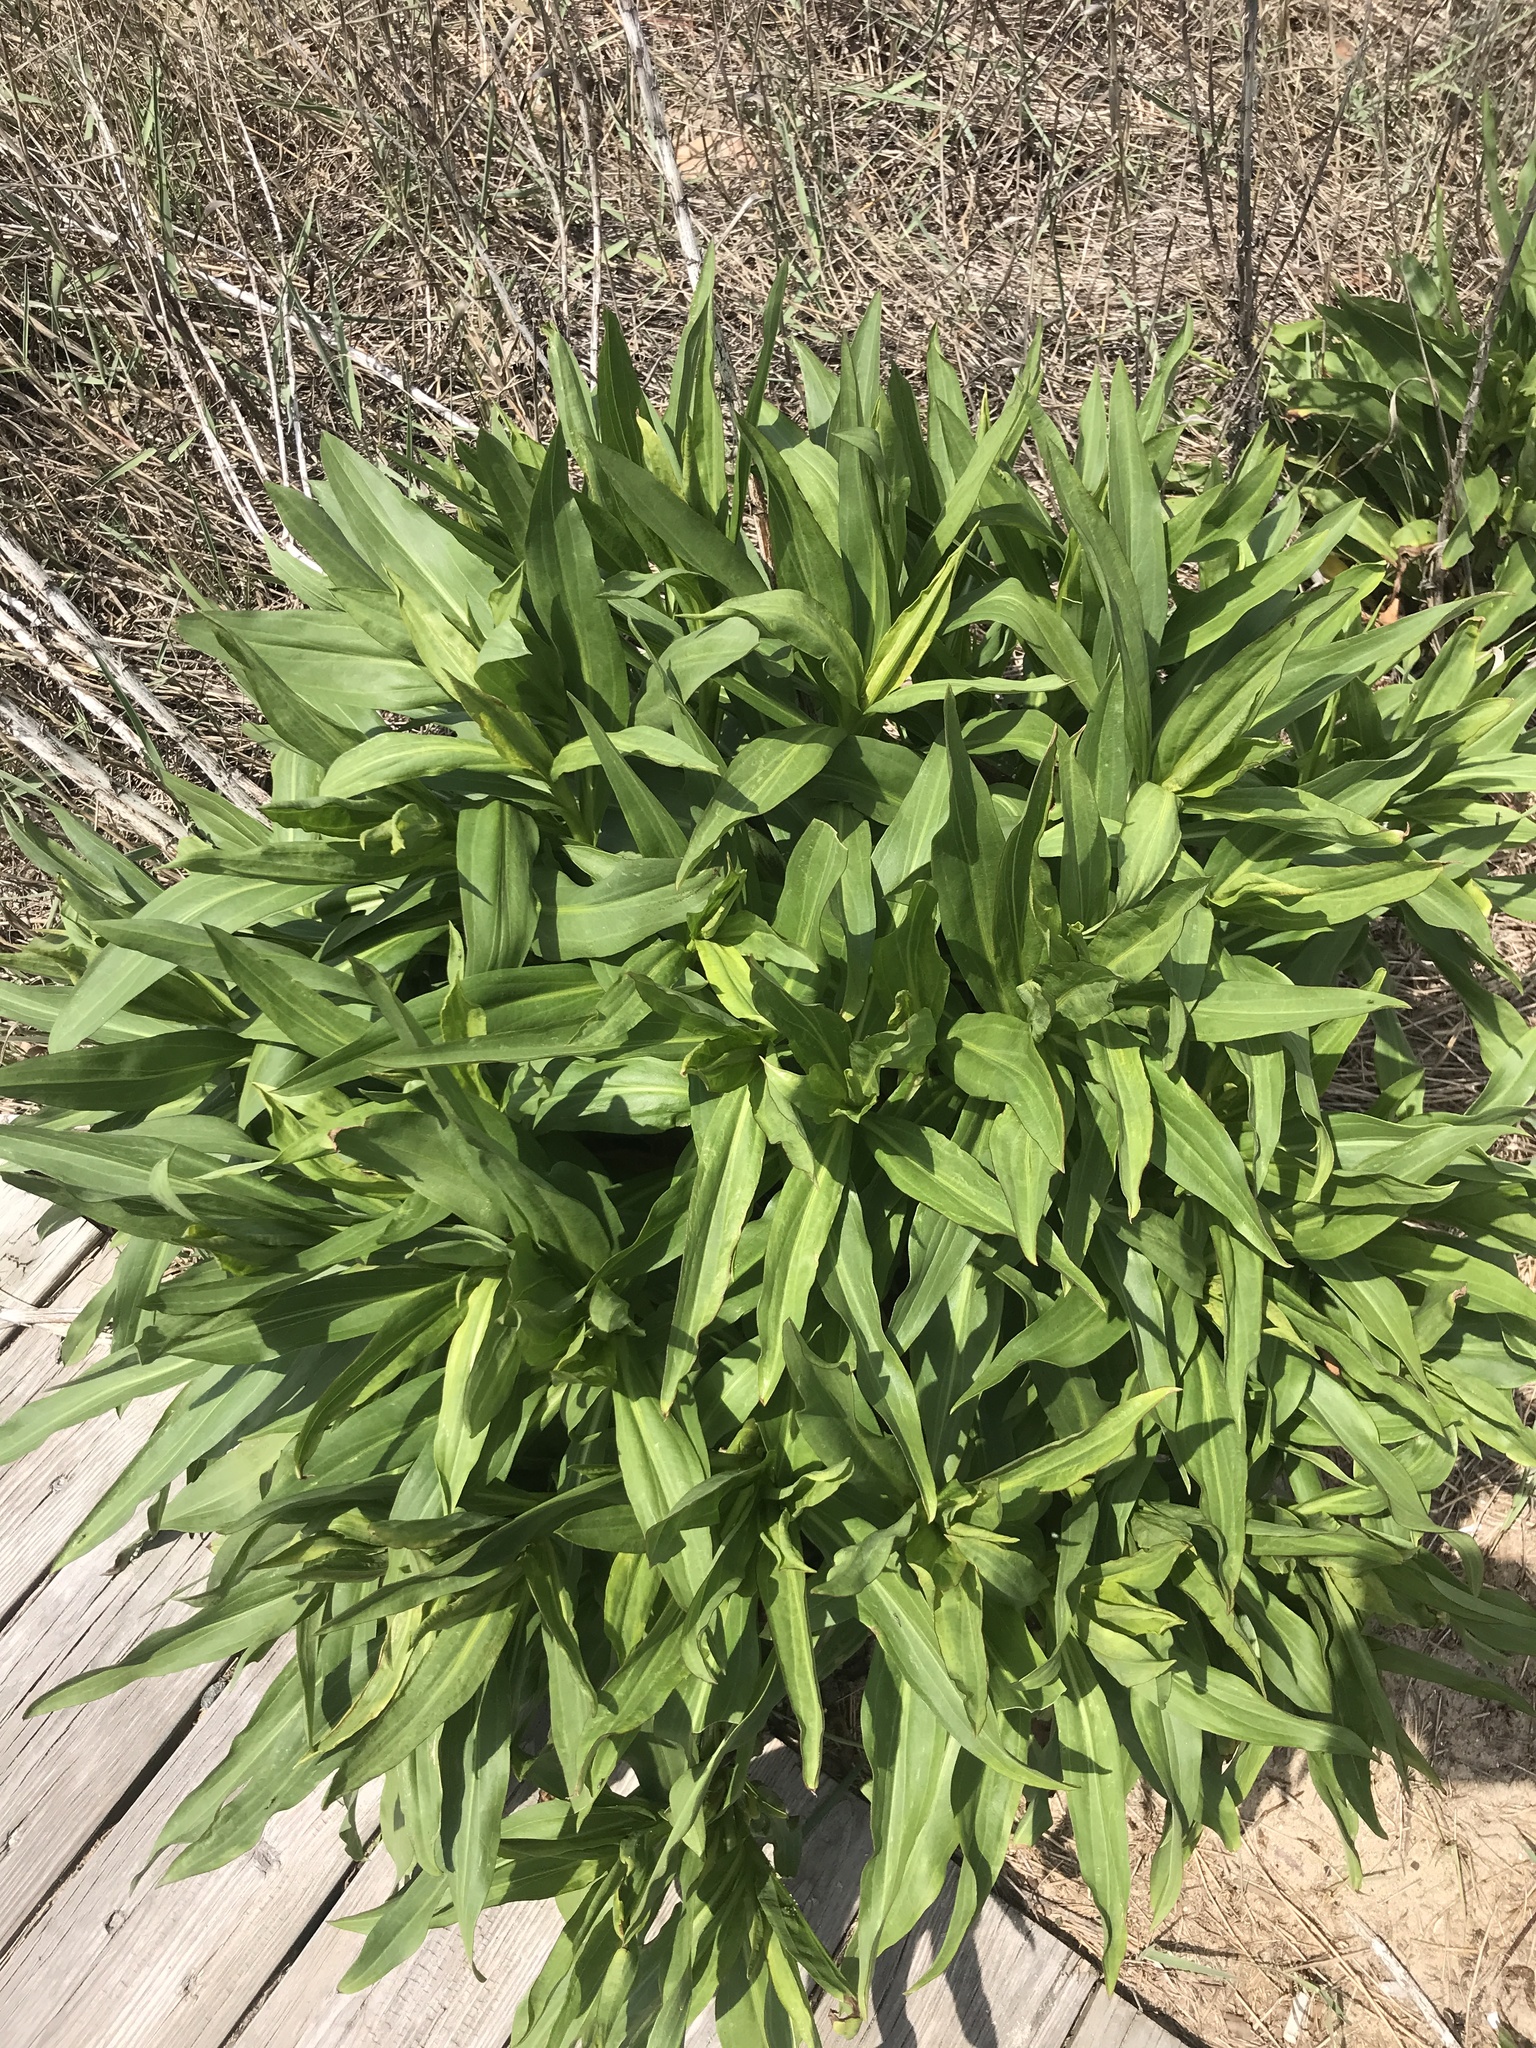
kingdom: Plantae
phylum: Tracheophyta
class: Magnoliopsida
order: Asterales
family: Asteraceae
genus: Solidago
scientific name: Solidago sempervirens
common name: Salt-marsh goldenrod
